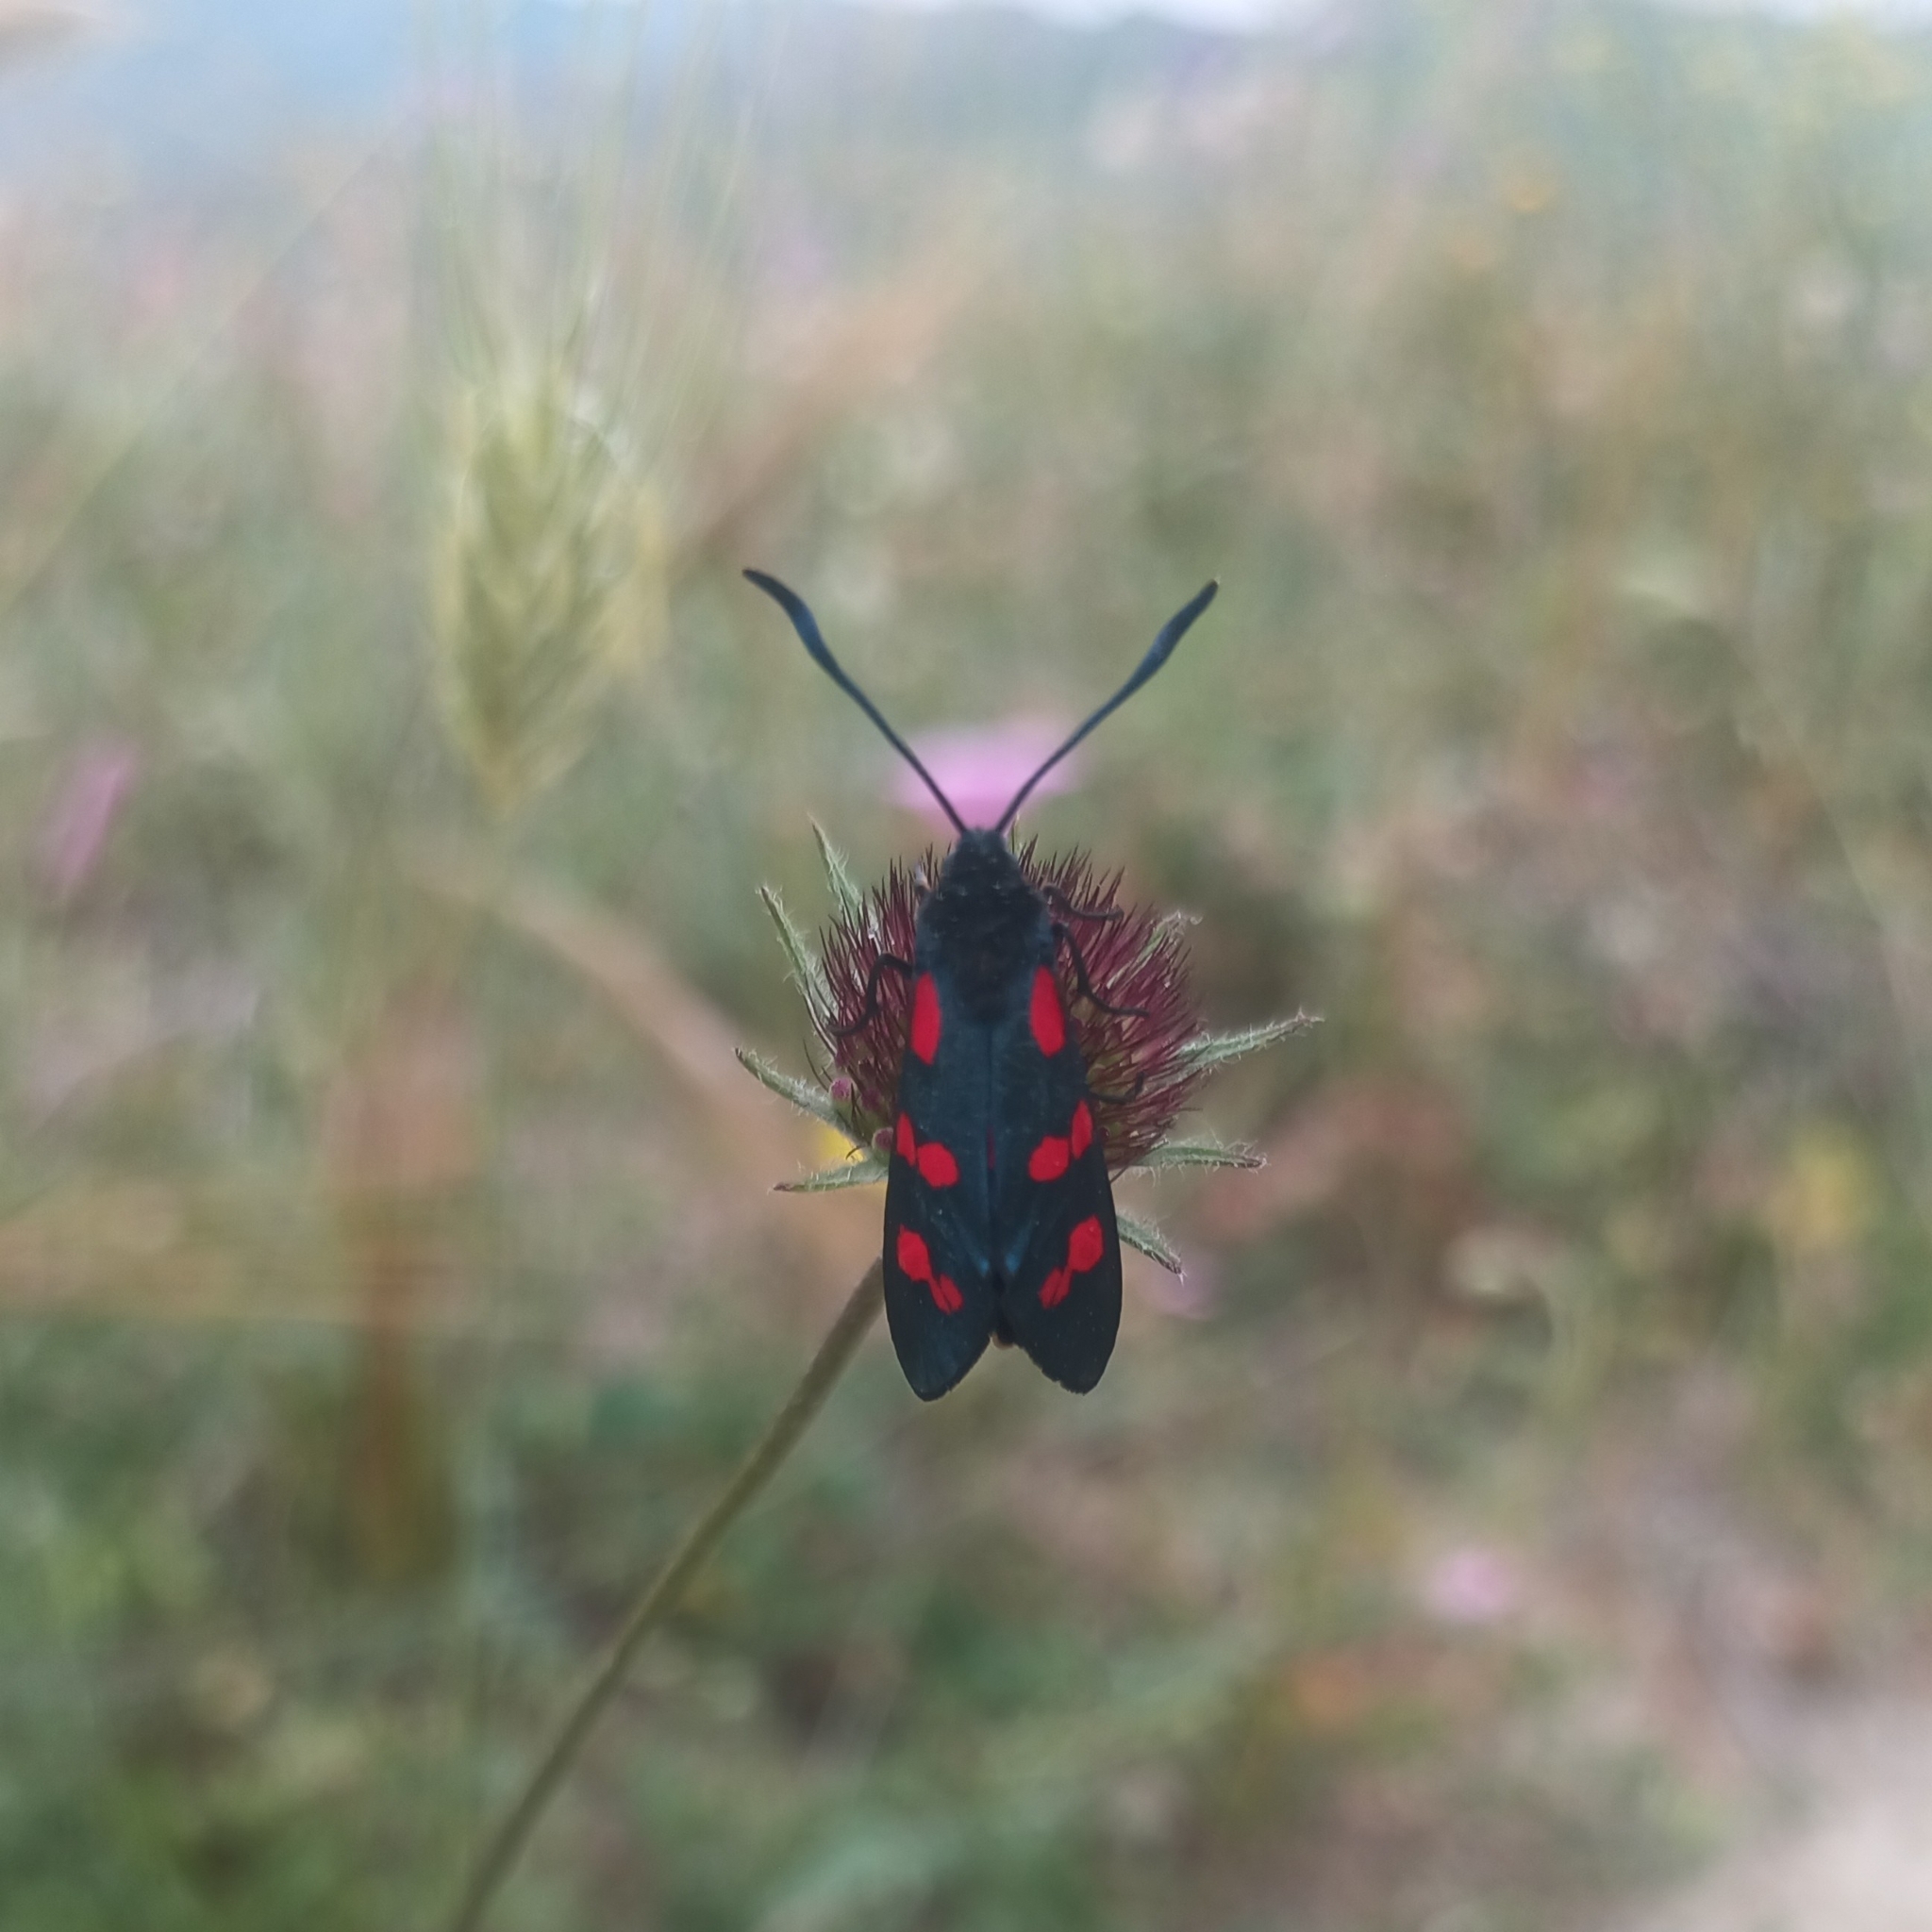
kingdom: Animalia
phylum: Arthropoda
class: Insecta
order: Lepidoptera
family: Zygaenidae
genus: Zygaena
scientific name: Zygaena filipendulae
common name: Six-spot burnet
